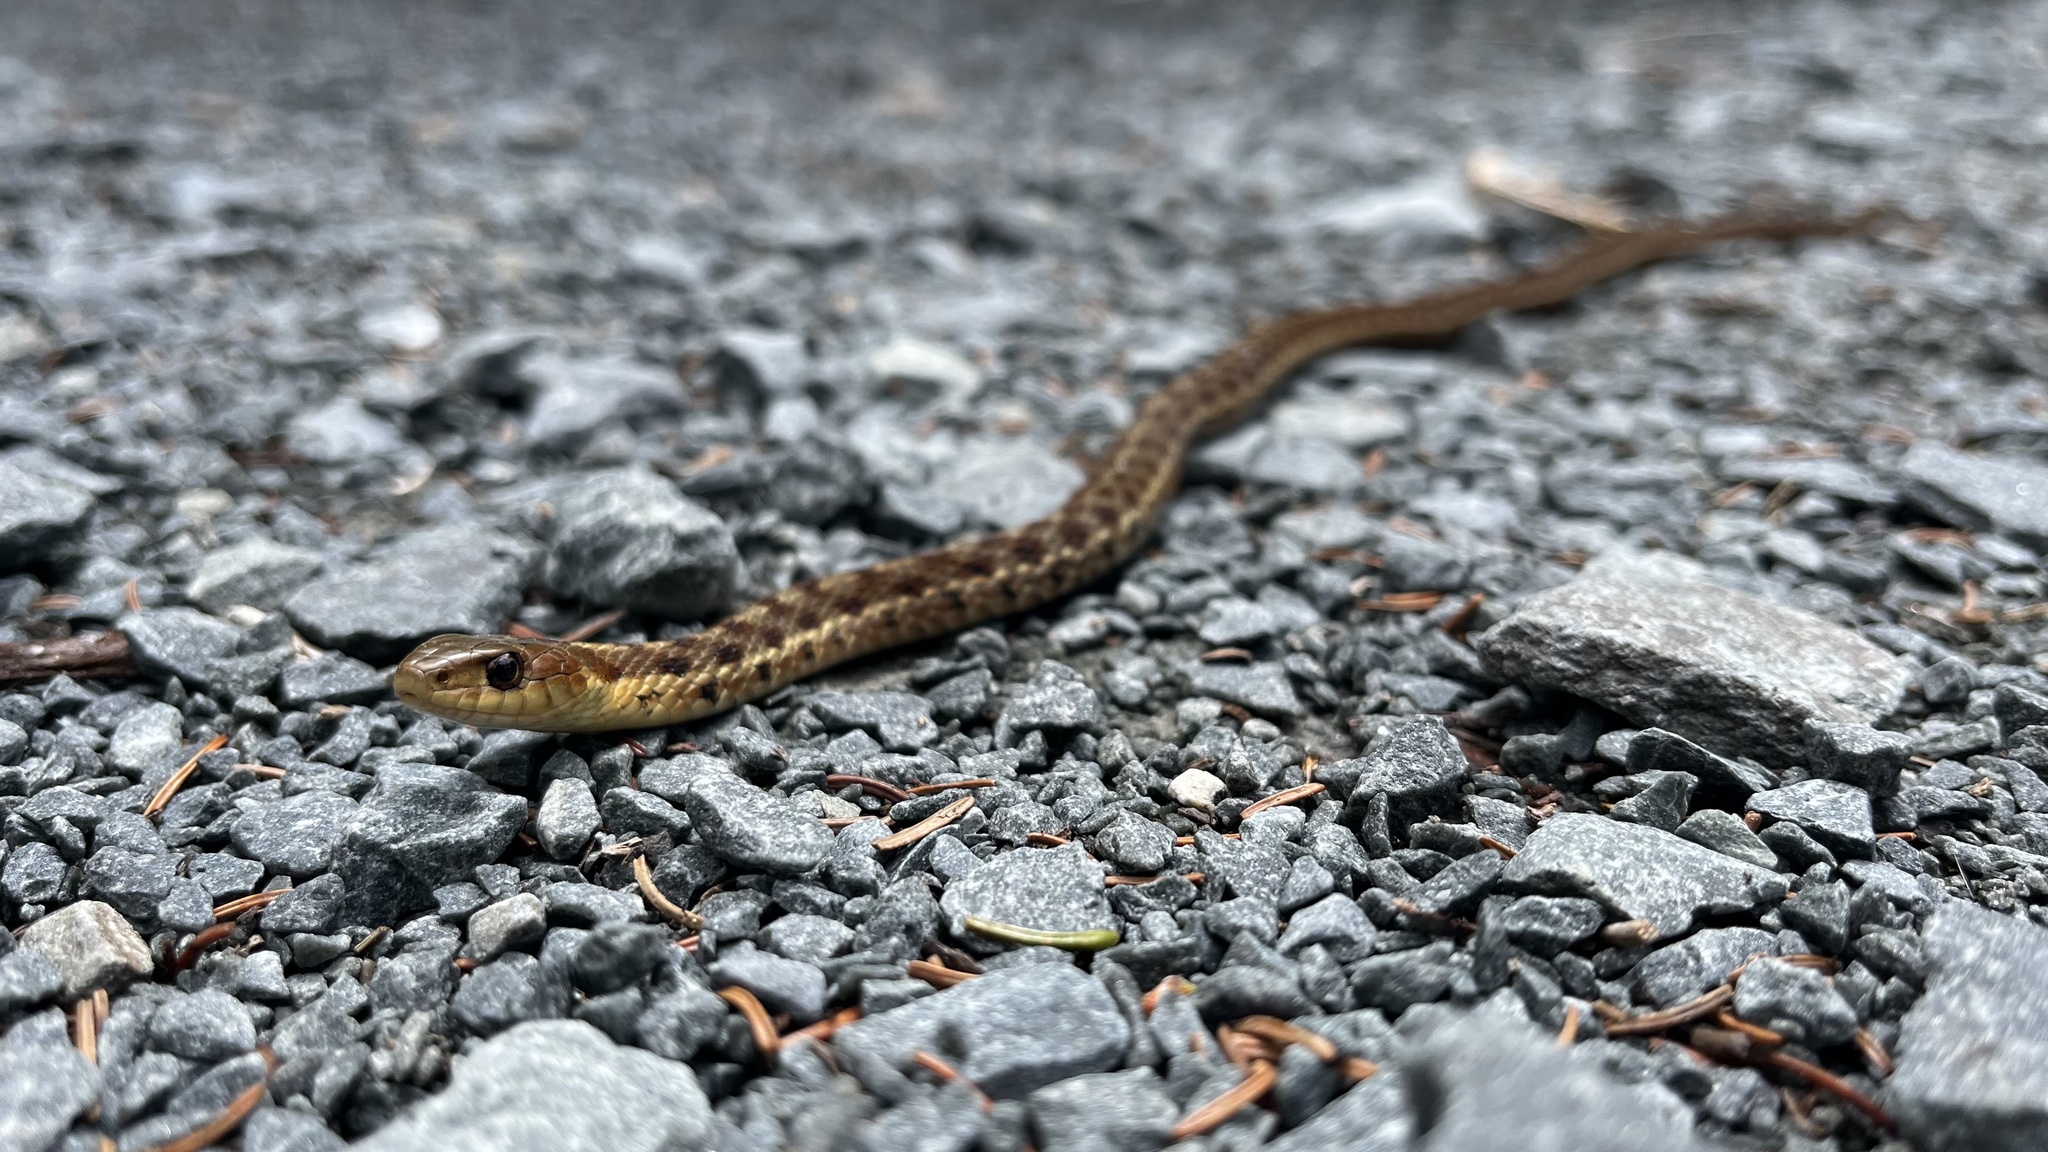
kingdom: Animalia
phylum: Chordata
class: Squamata
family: Colubridae
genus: Thamnophis
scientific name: Thamnophis sirtalis
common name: Common garter snake
